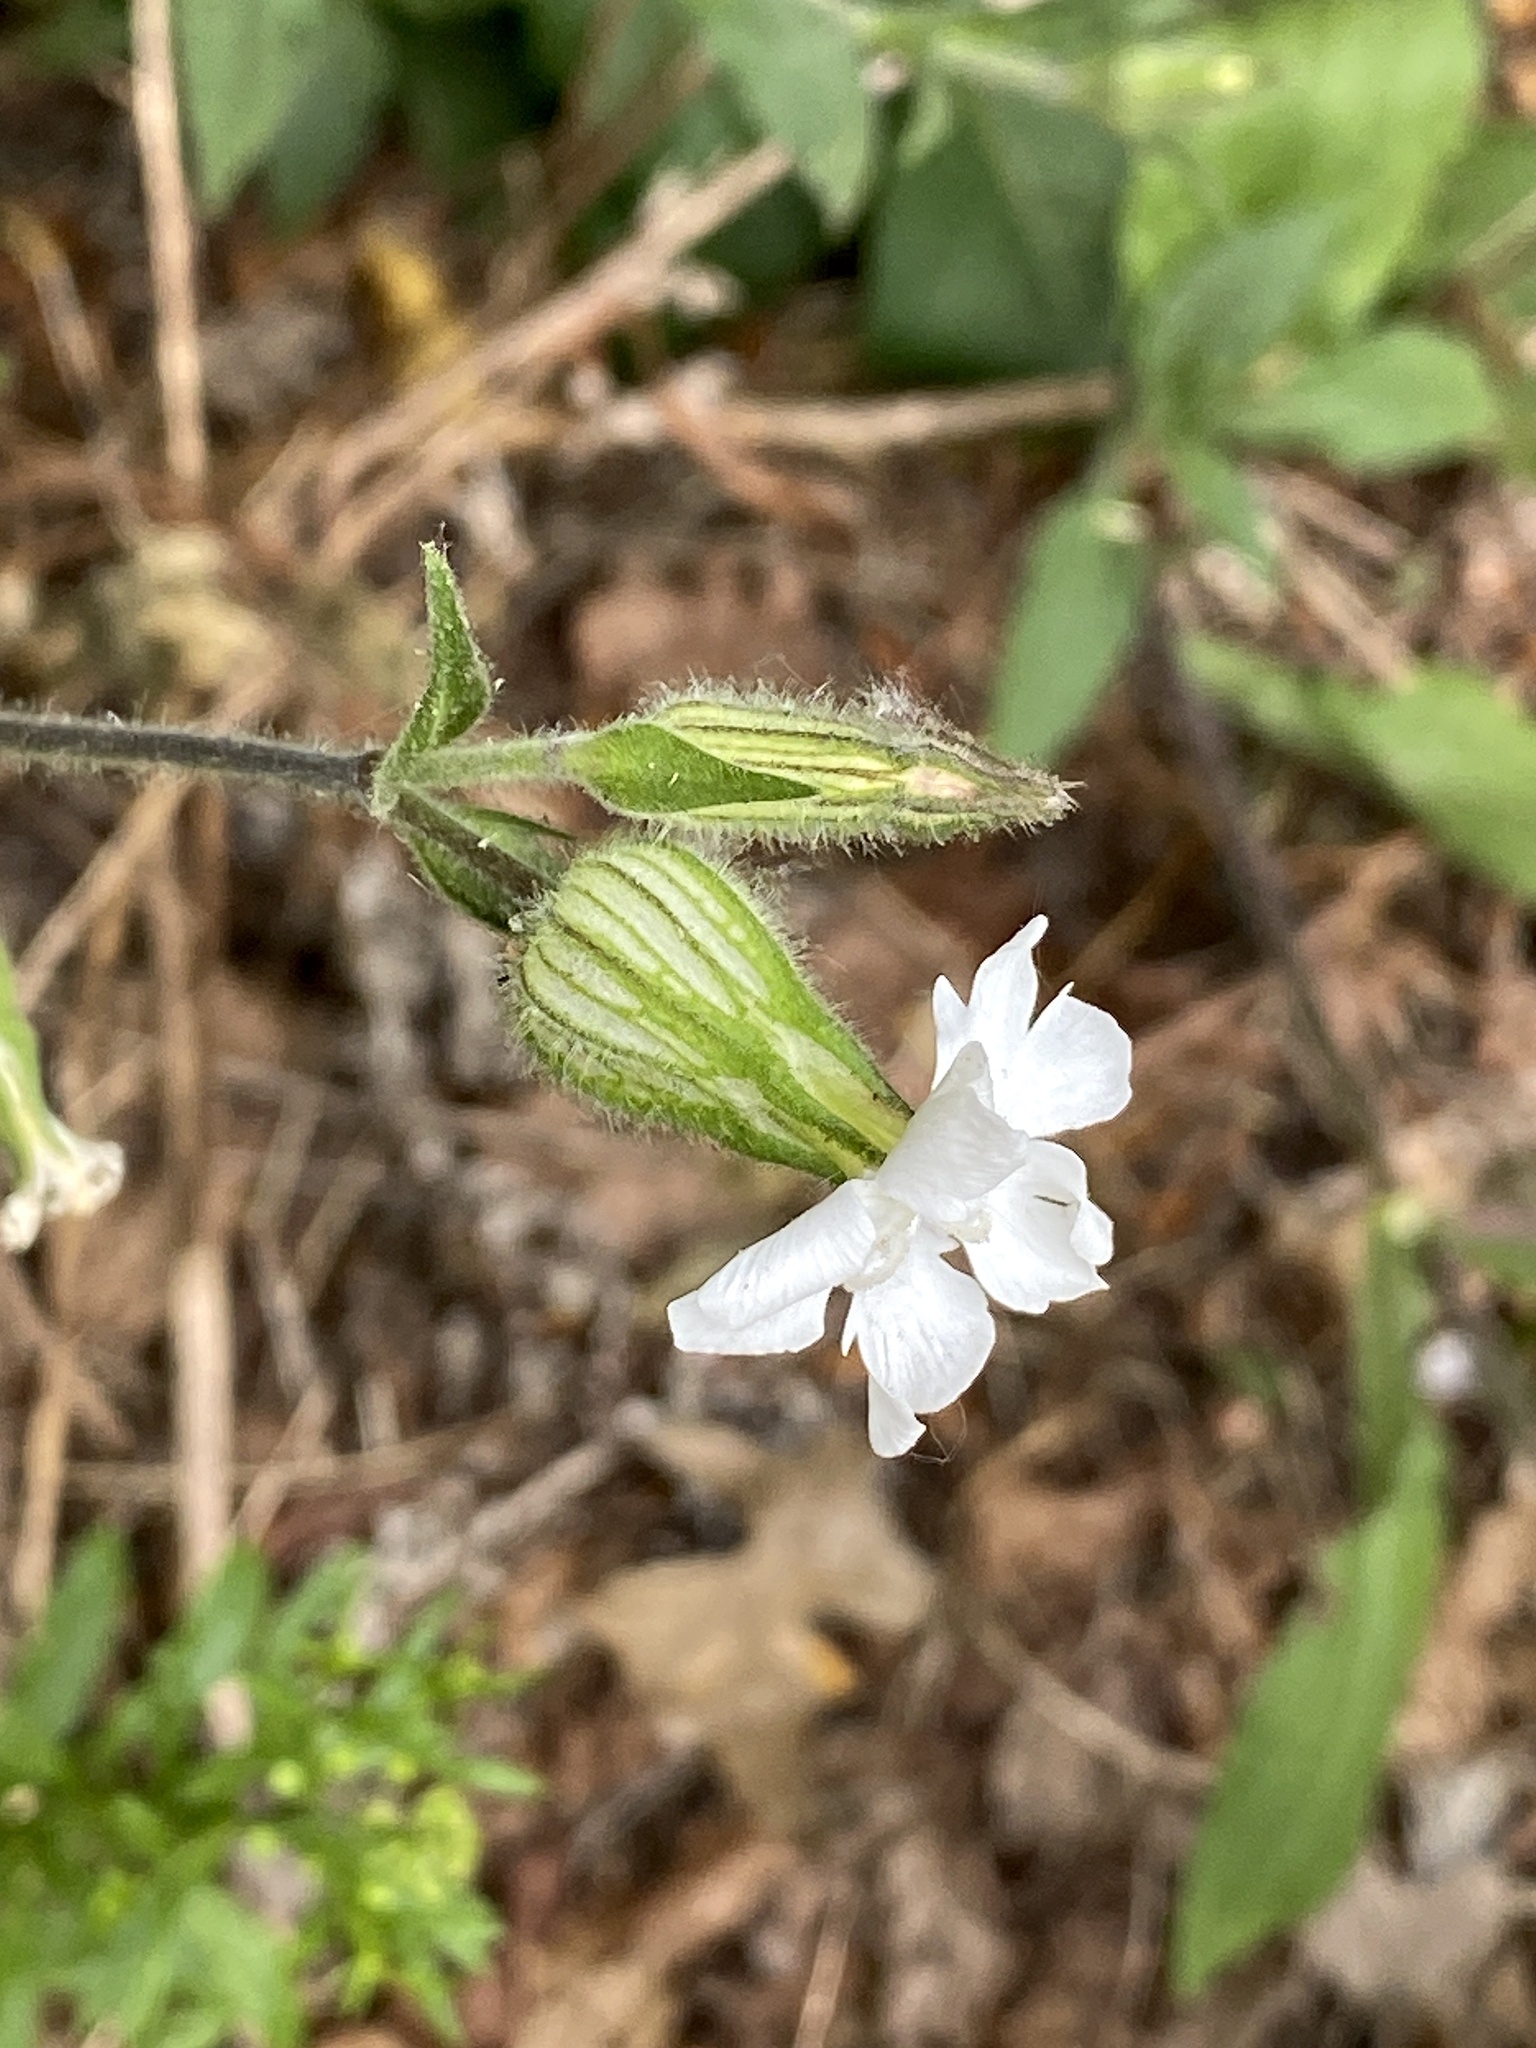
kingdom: Plantae
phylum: Tracheophyta
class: Magnoliopsida
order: Caryophyllales
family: Caryophyllaceae
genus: Silene
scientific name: Silene latifolia
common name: White campion
